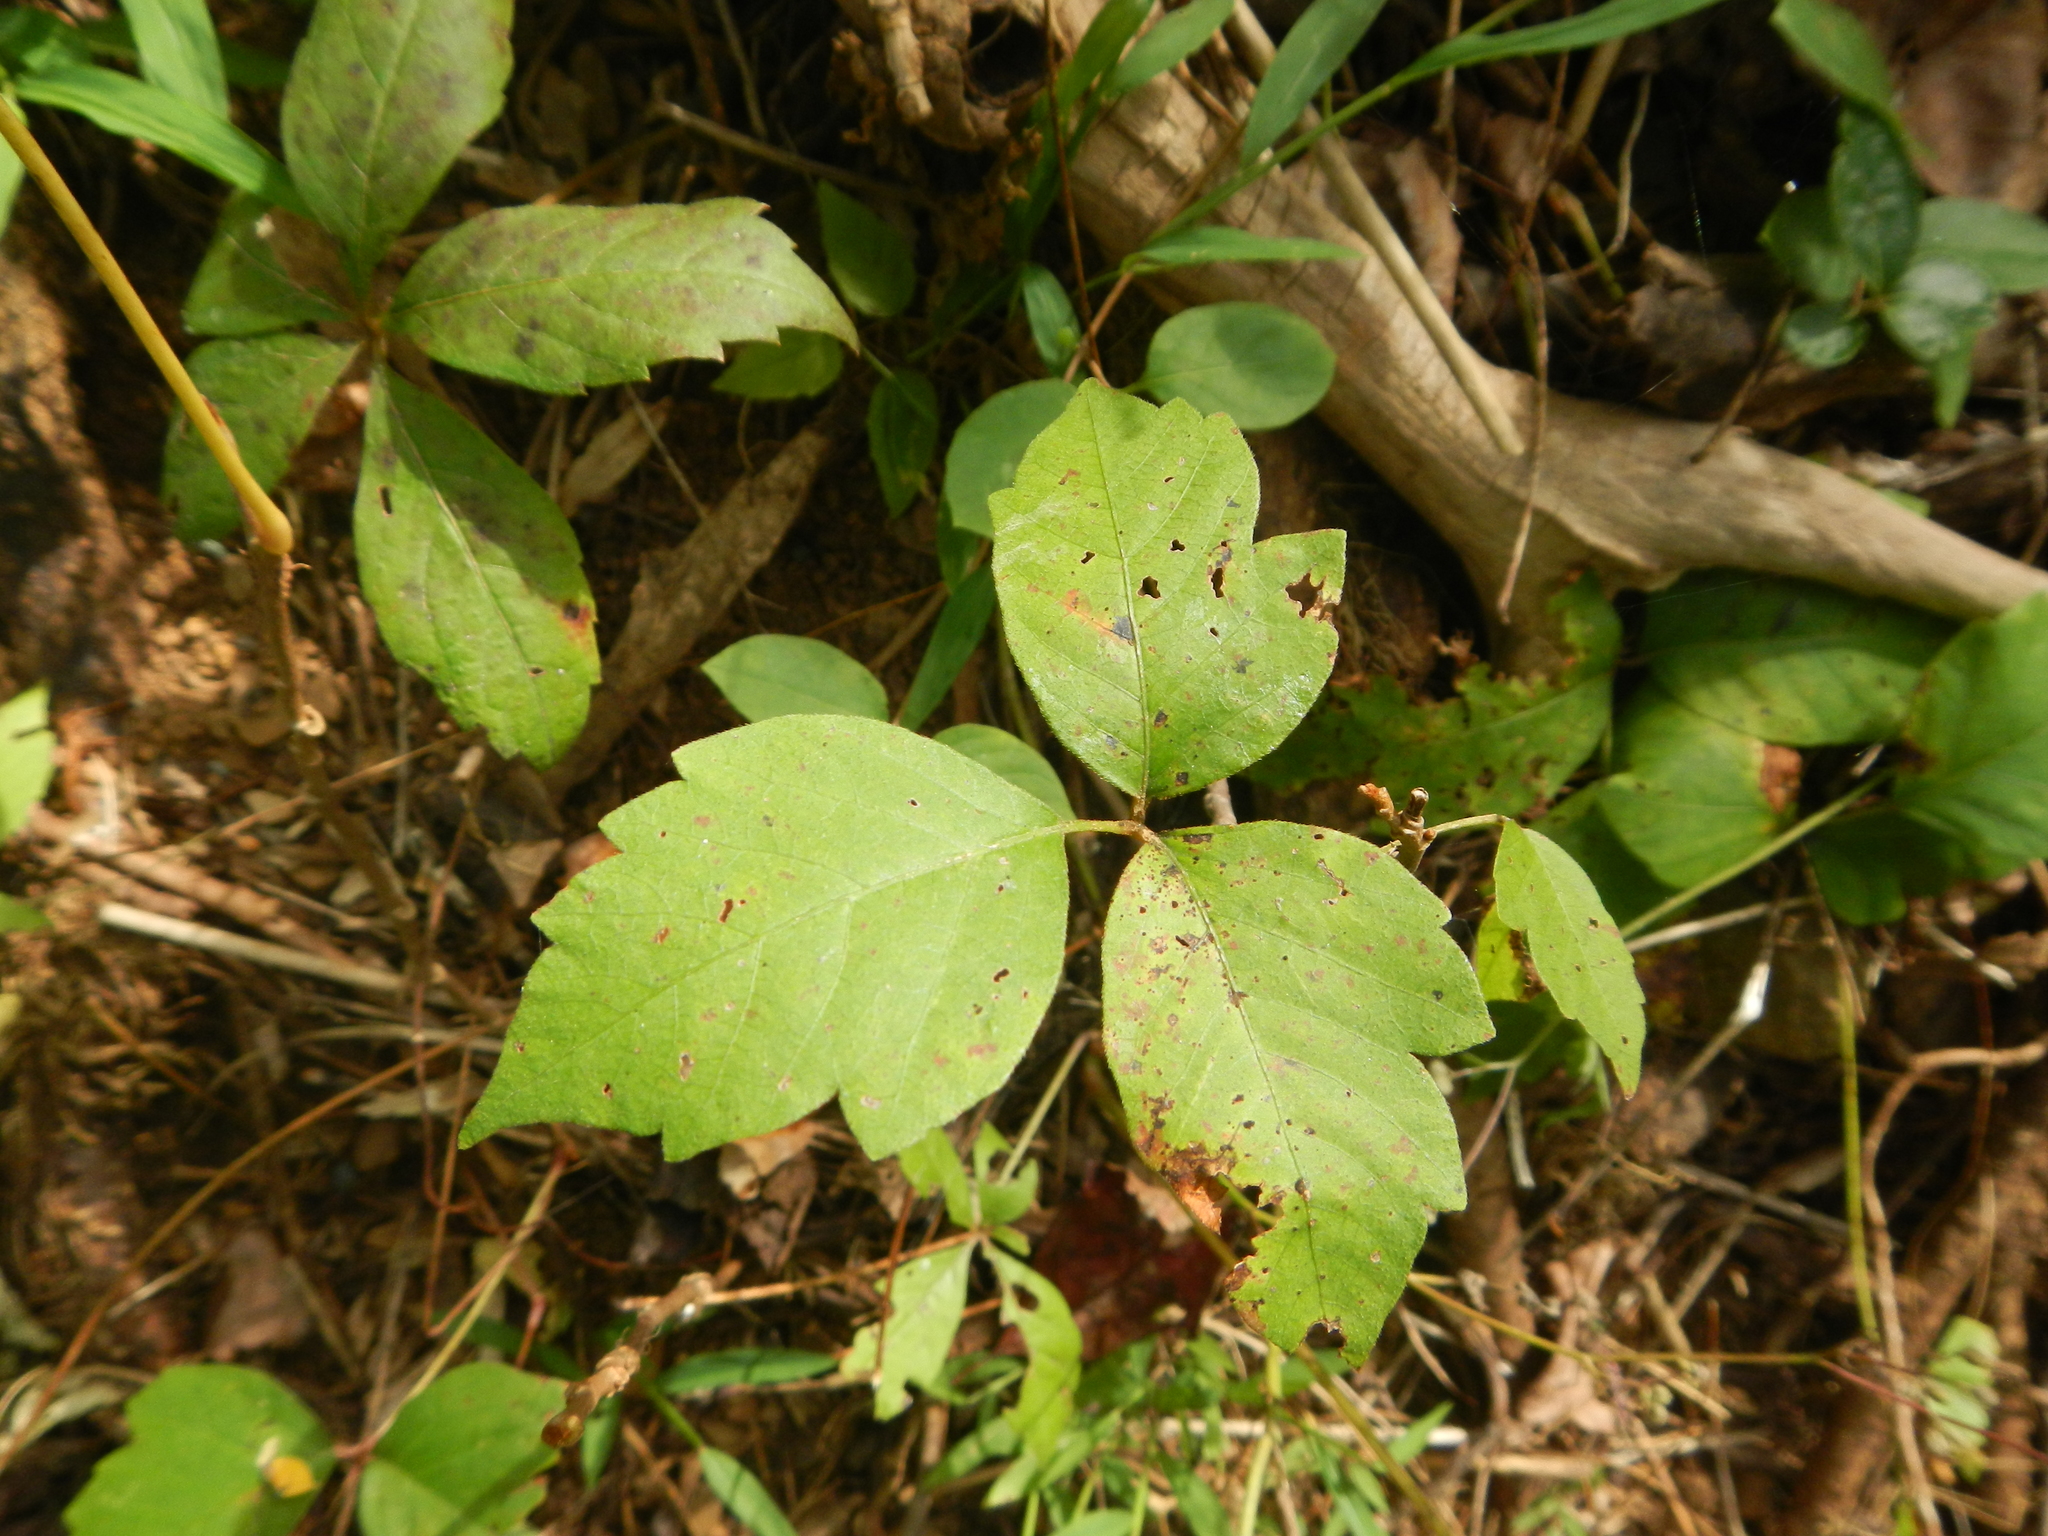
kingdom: Plantae
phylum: Tracheophyta
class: Magnoliopsida
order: Sapindales
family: Anacardiaceae
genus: Toxicodendron
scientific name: Toxicodendron radicans
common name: Poison ivy
